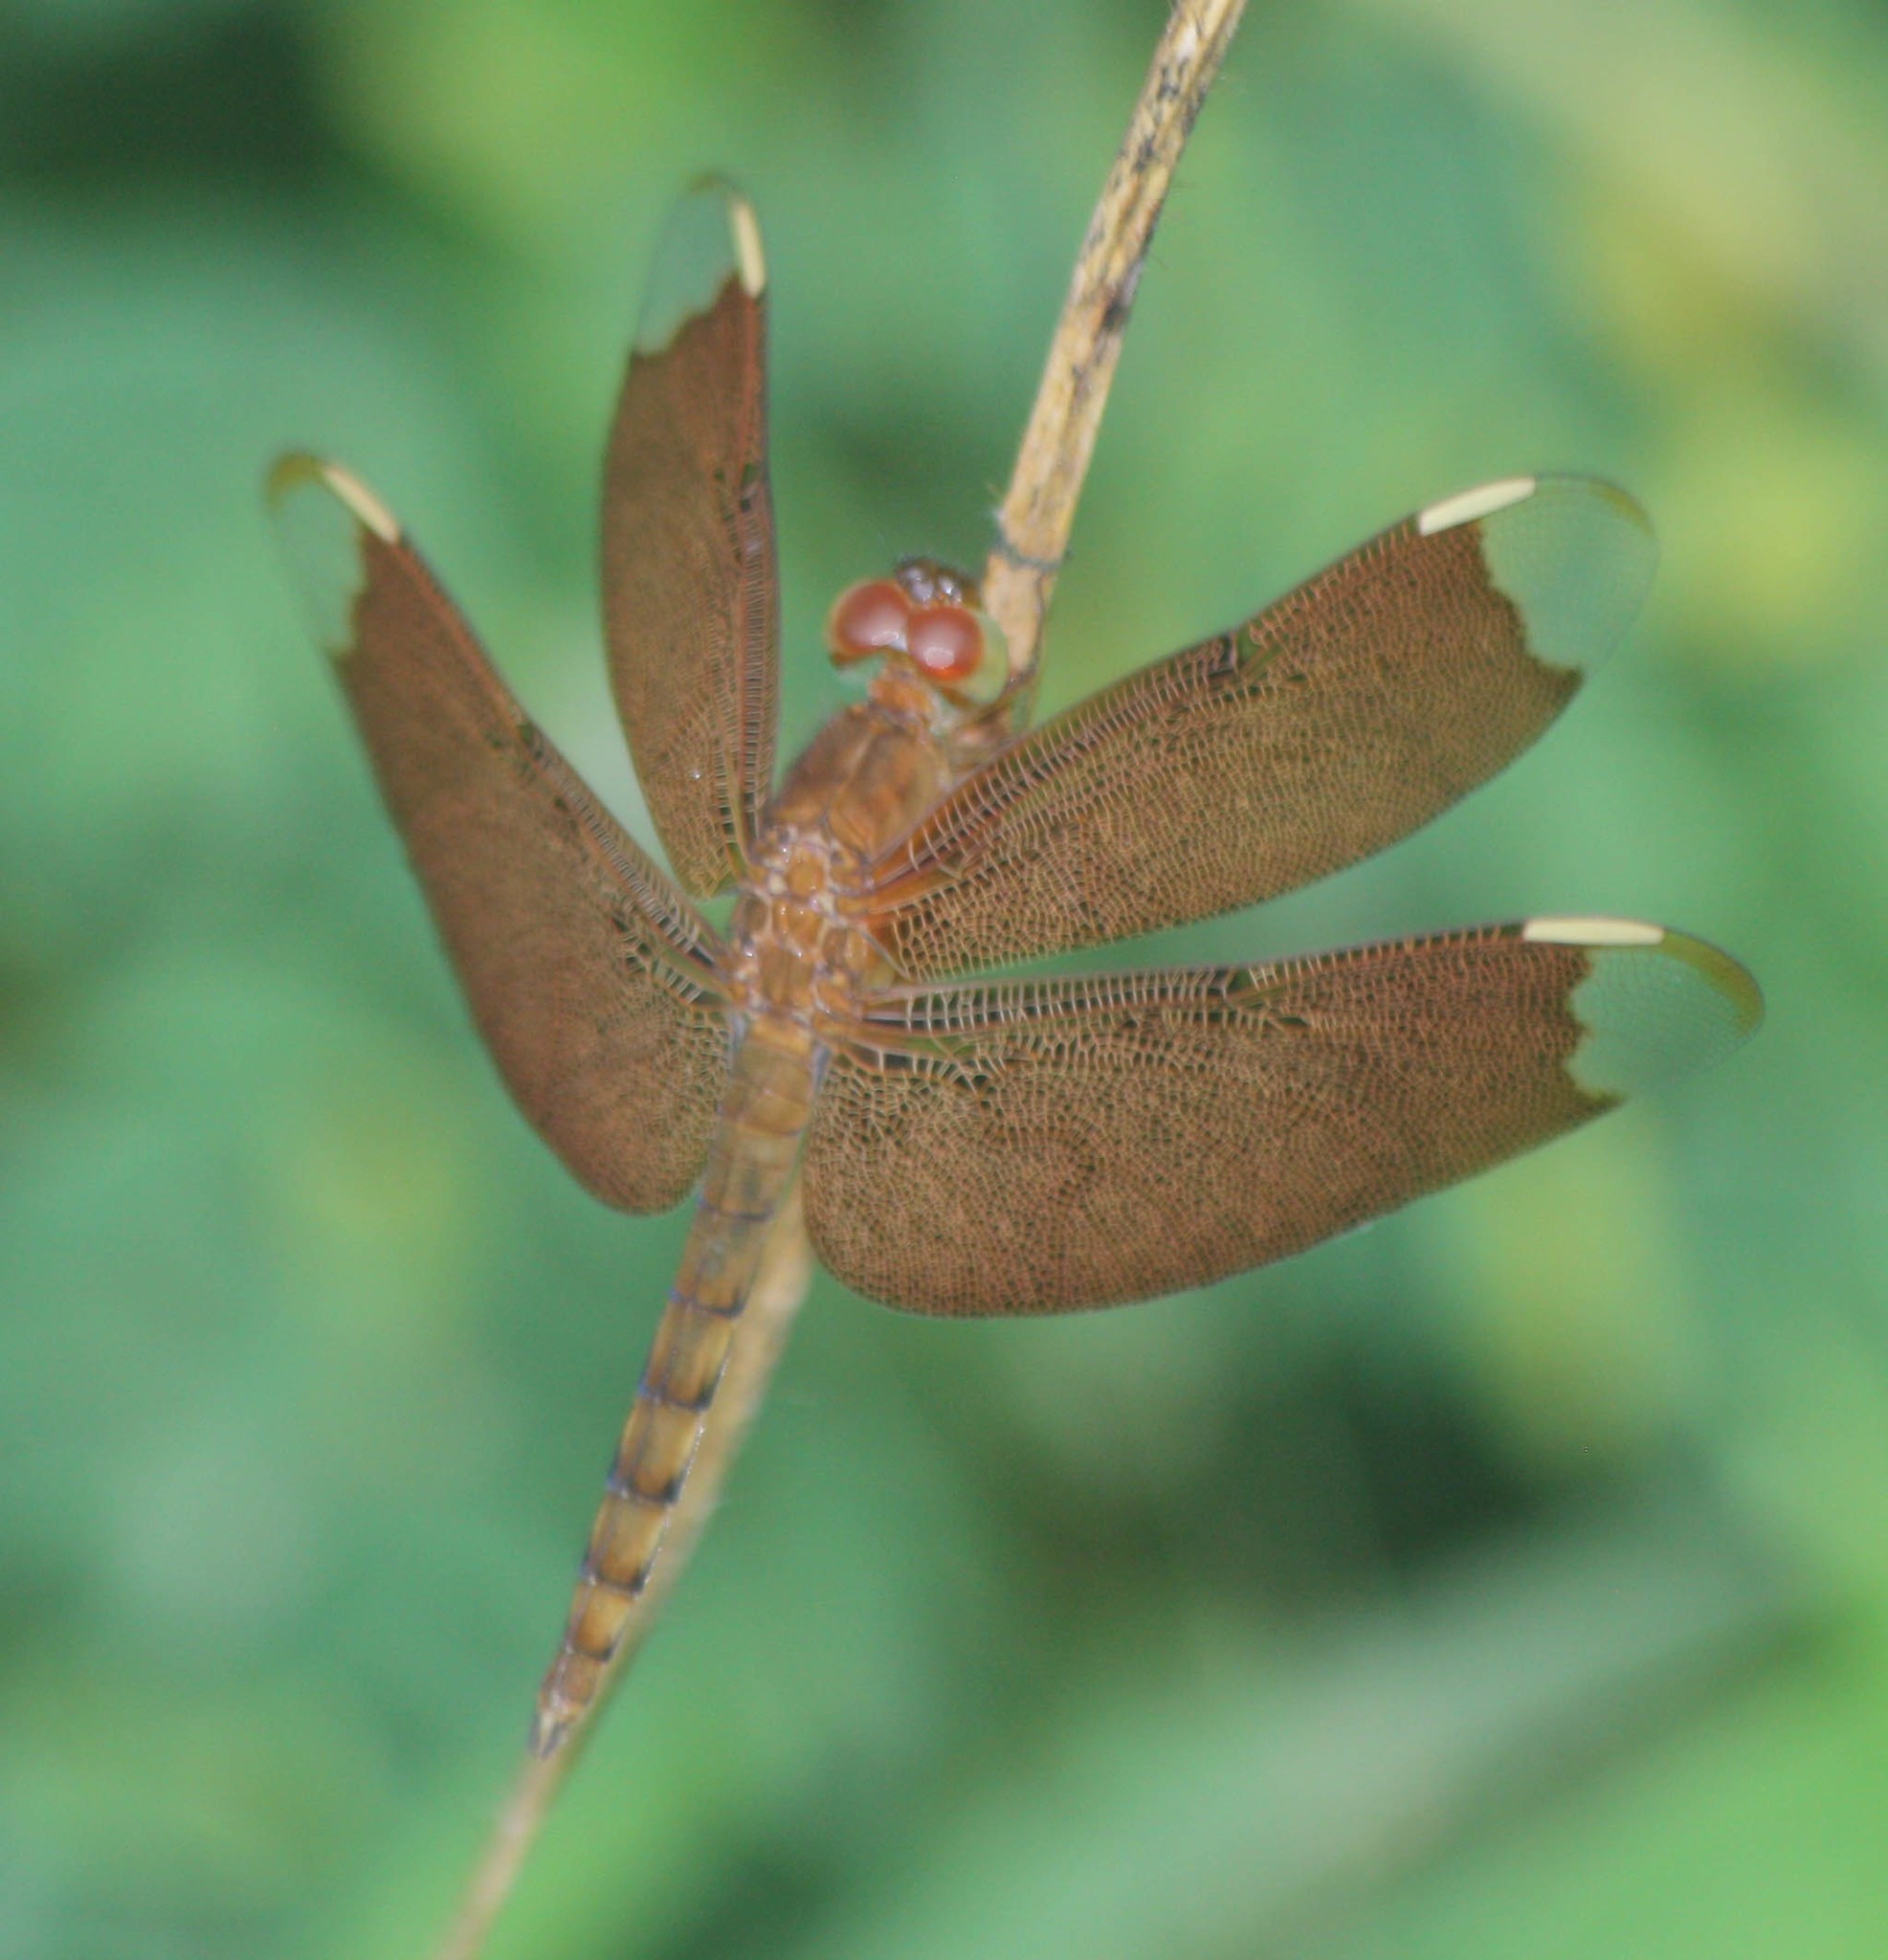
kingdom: Animalia
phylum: Arthropoda
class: Insecta
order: Odonata
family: Libellulidae
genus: Neurothemis
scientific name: Neurothemis fulvia
